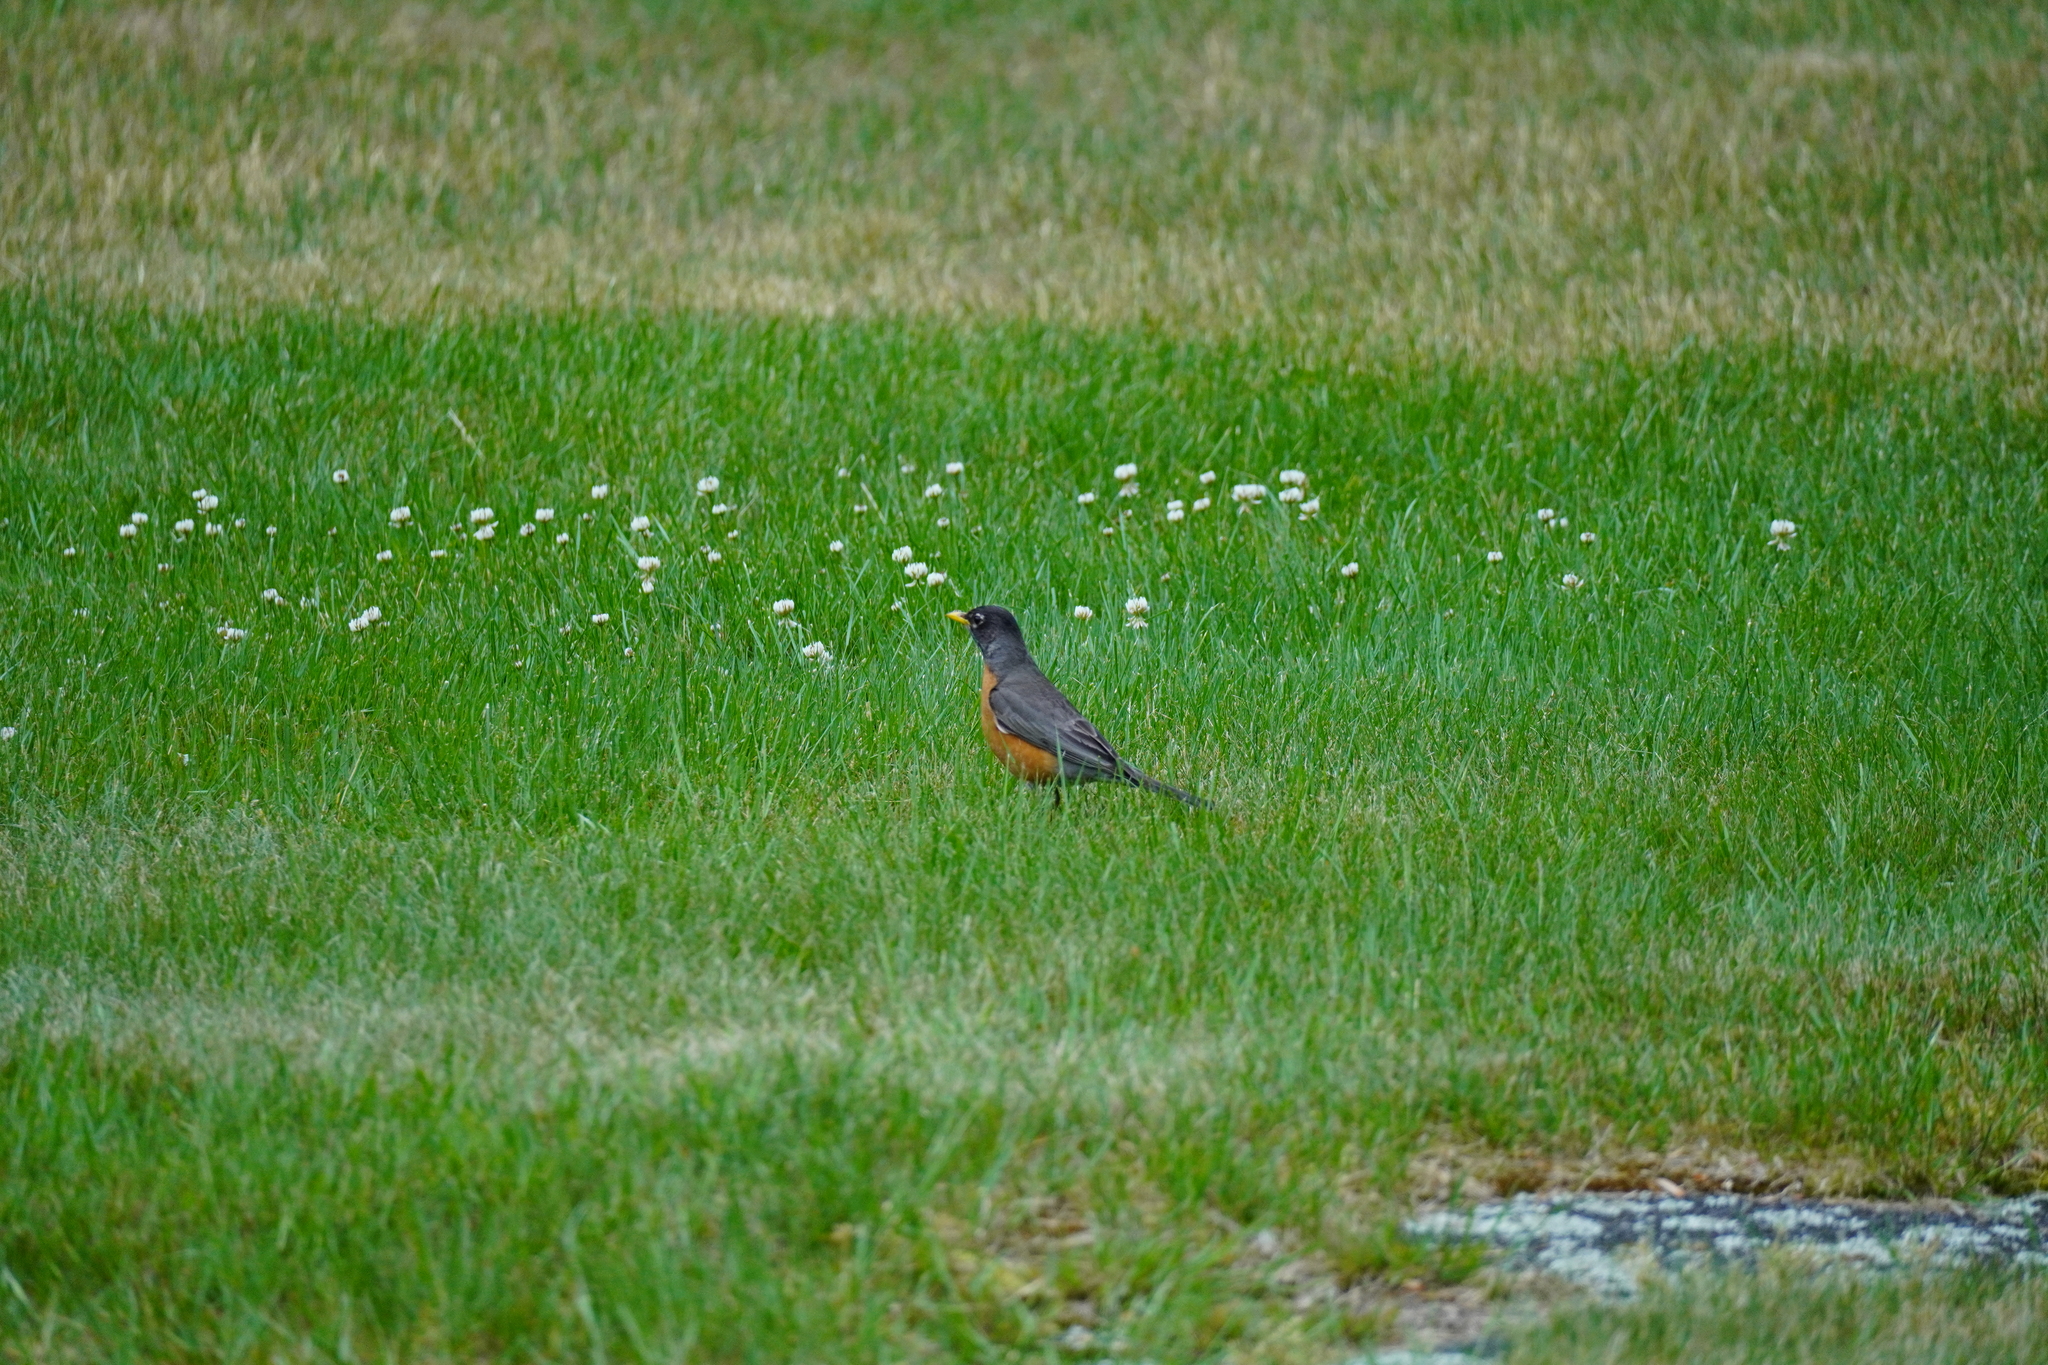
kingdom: Animalia
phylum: Chordata
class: Aves
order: Passeriformes
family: Turdidae
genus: Turdus
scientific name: Turdus migratorius
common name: American robin
